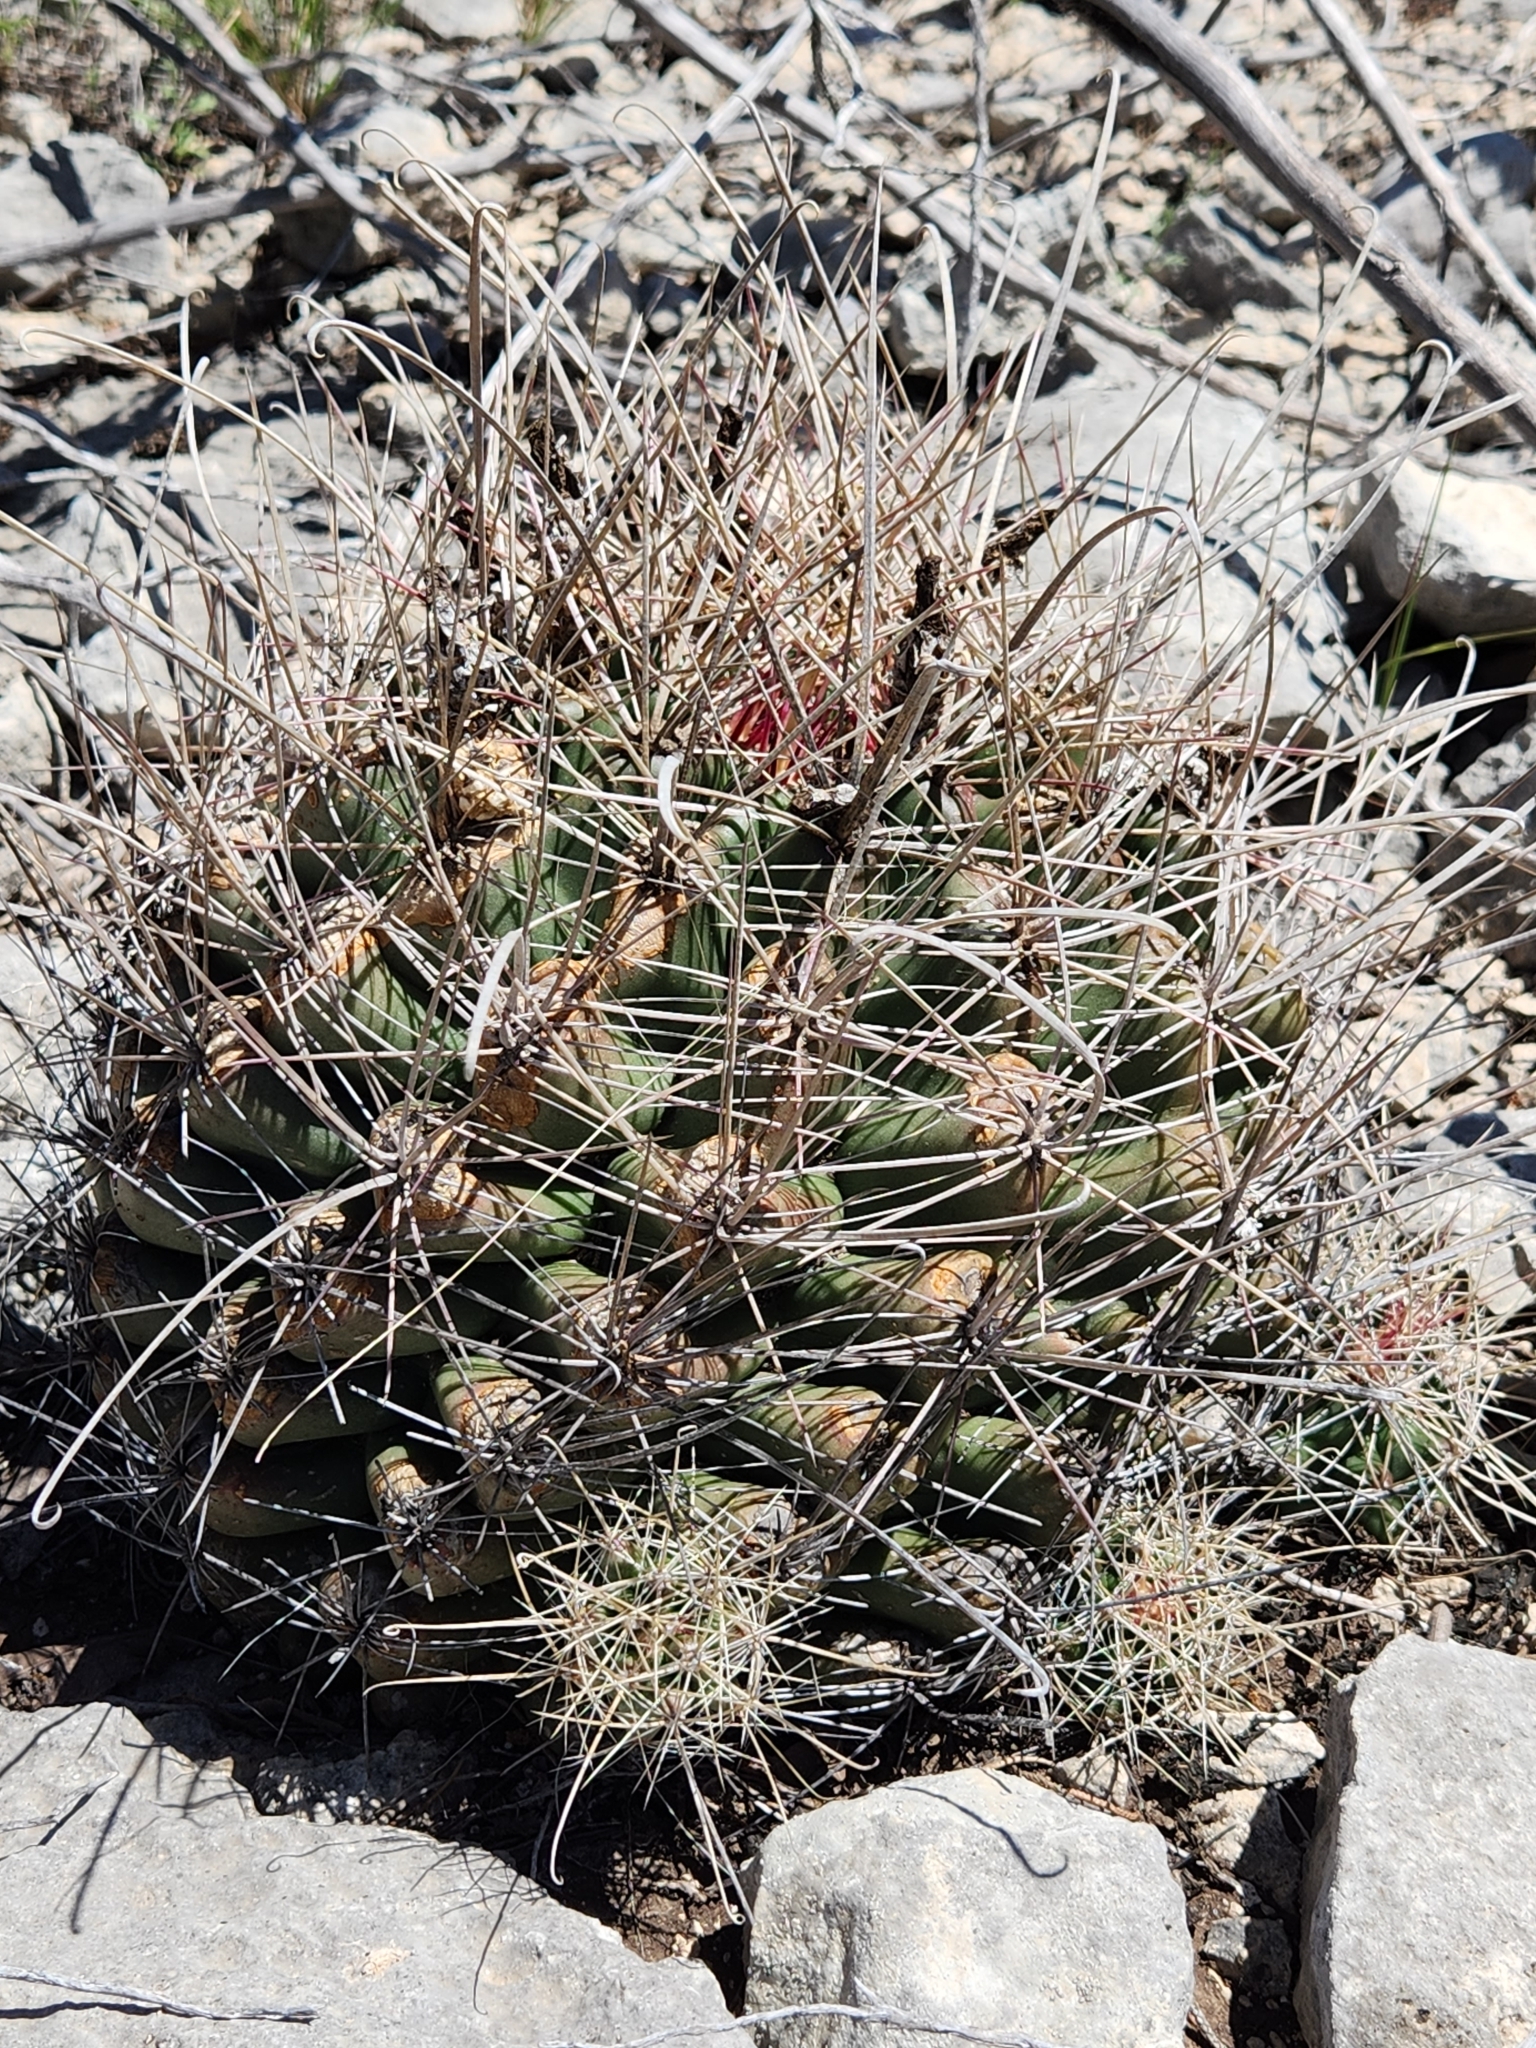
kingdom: Plantae
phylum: Tracheophyta
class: Magnoliopsida
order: Caryophyllales
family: Cactaceae
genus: Bisnaga
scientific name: Bisnaga hamatacantha
